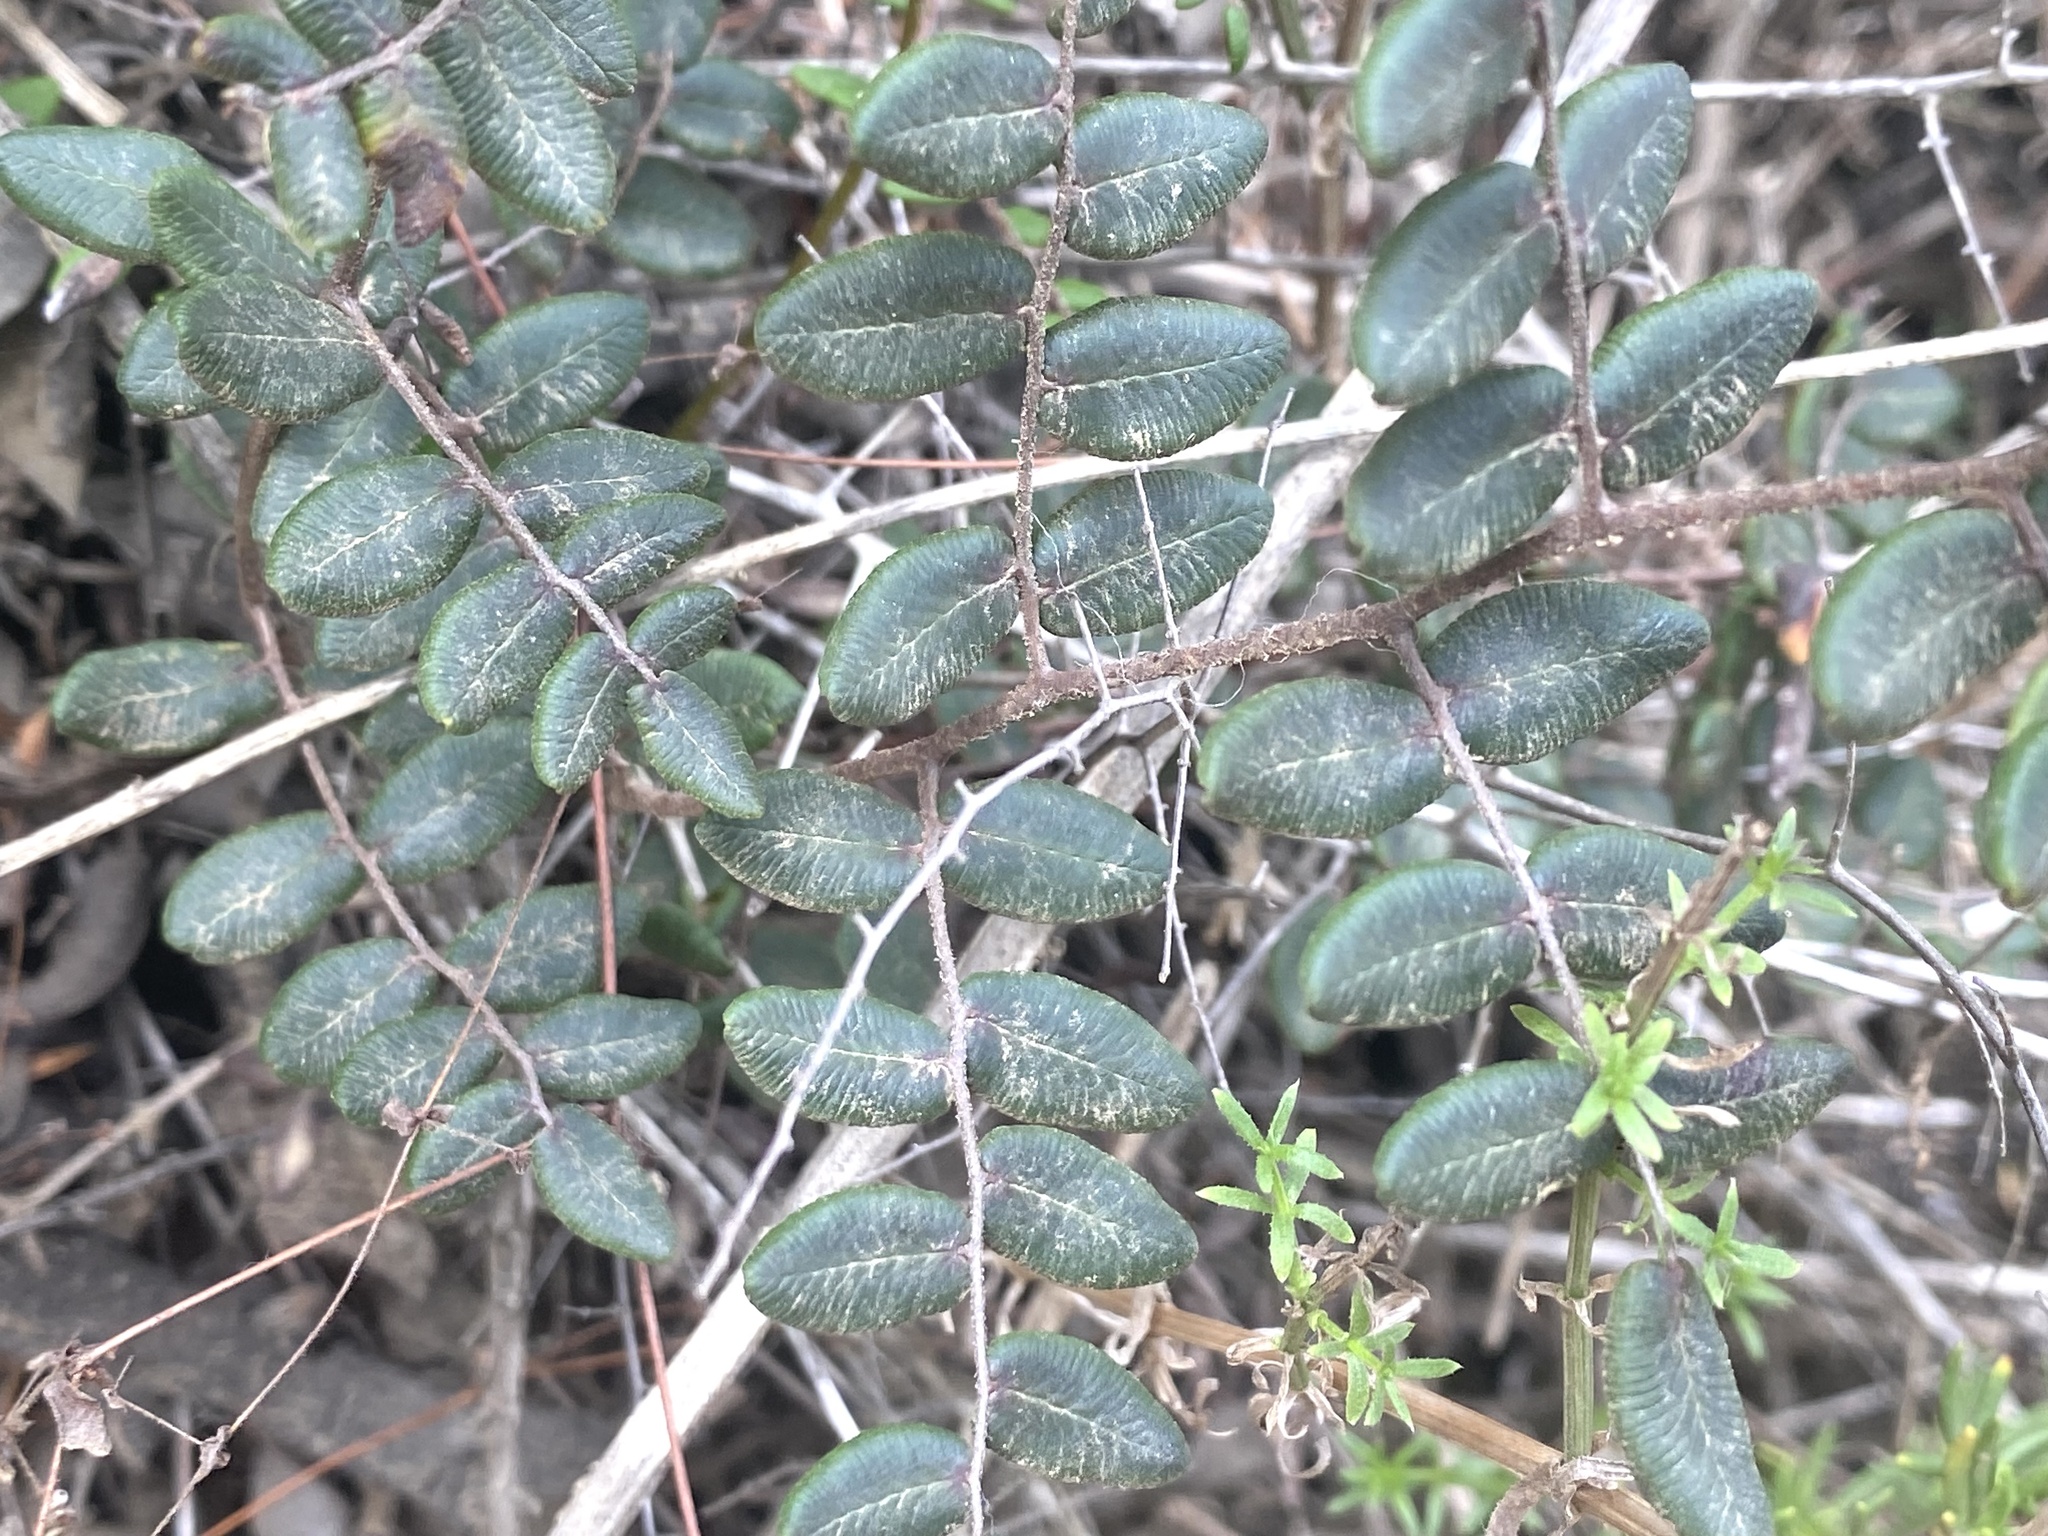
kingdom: Plantae
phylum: Tracheophyta
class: Polypodiopsida
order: Polypodiales
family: Pteridaceae
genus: Pellaea
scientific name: Pellaea andromedifolia
